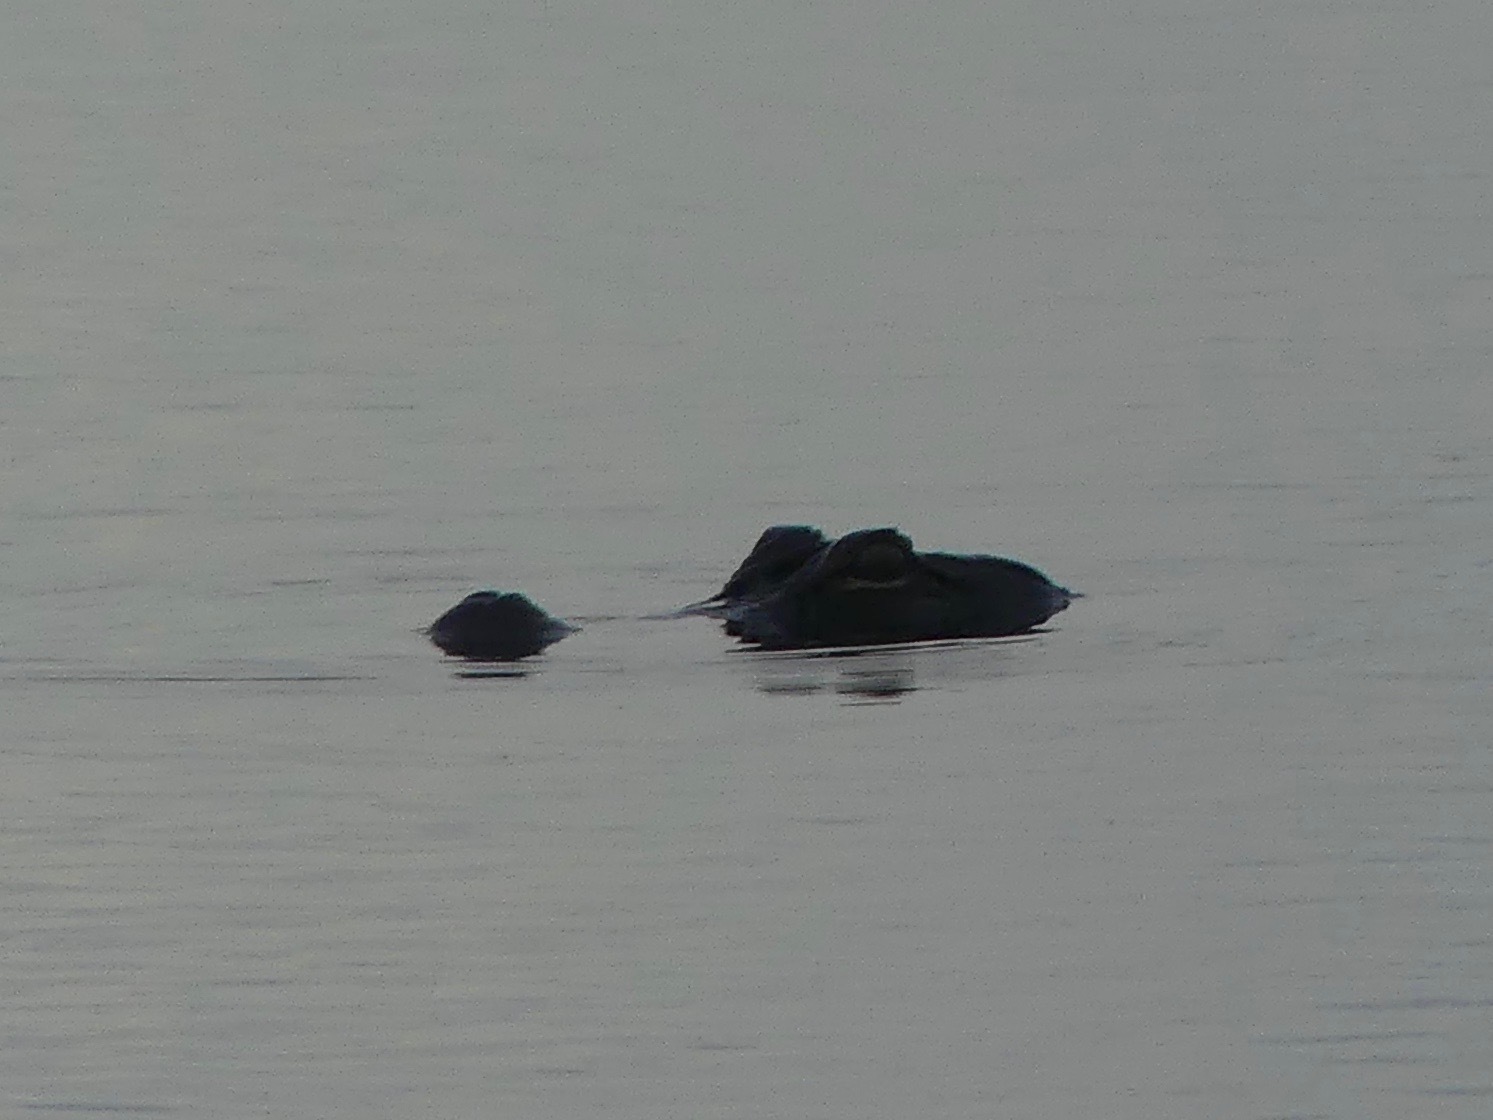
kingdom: Animalia
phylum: Chordata
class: Crocodylia
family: Alligatoridae
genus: Alligator
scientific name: Alligator mississippiensis
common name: American alligator
